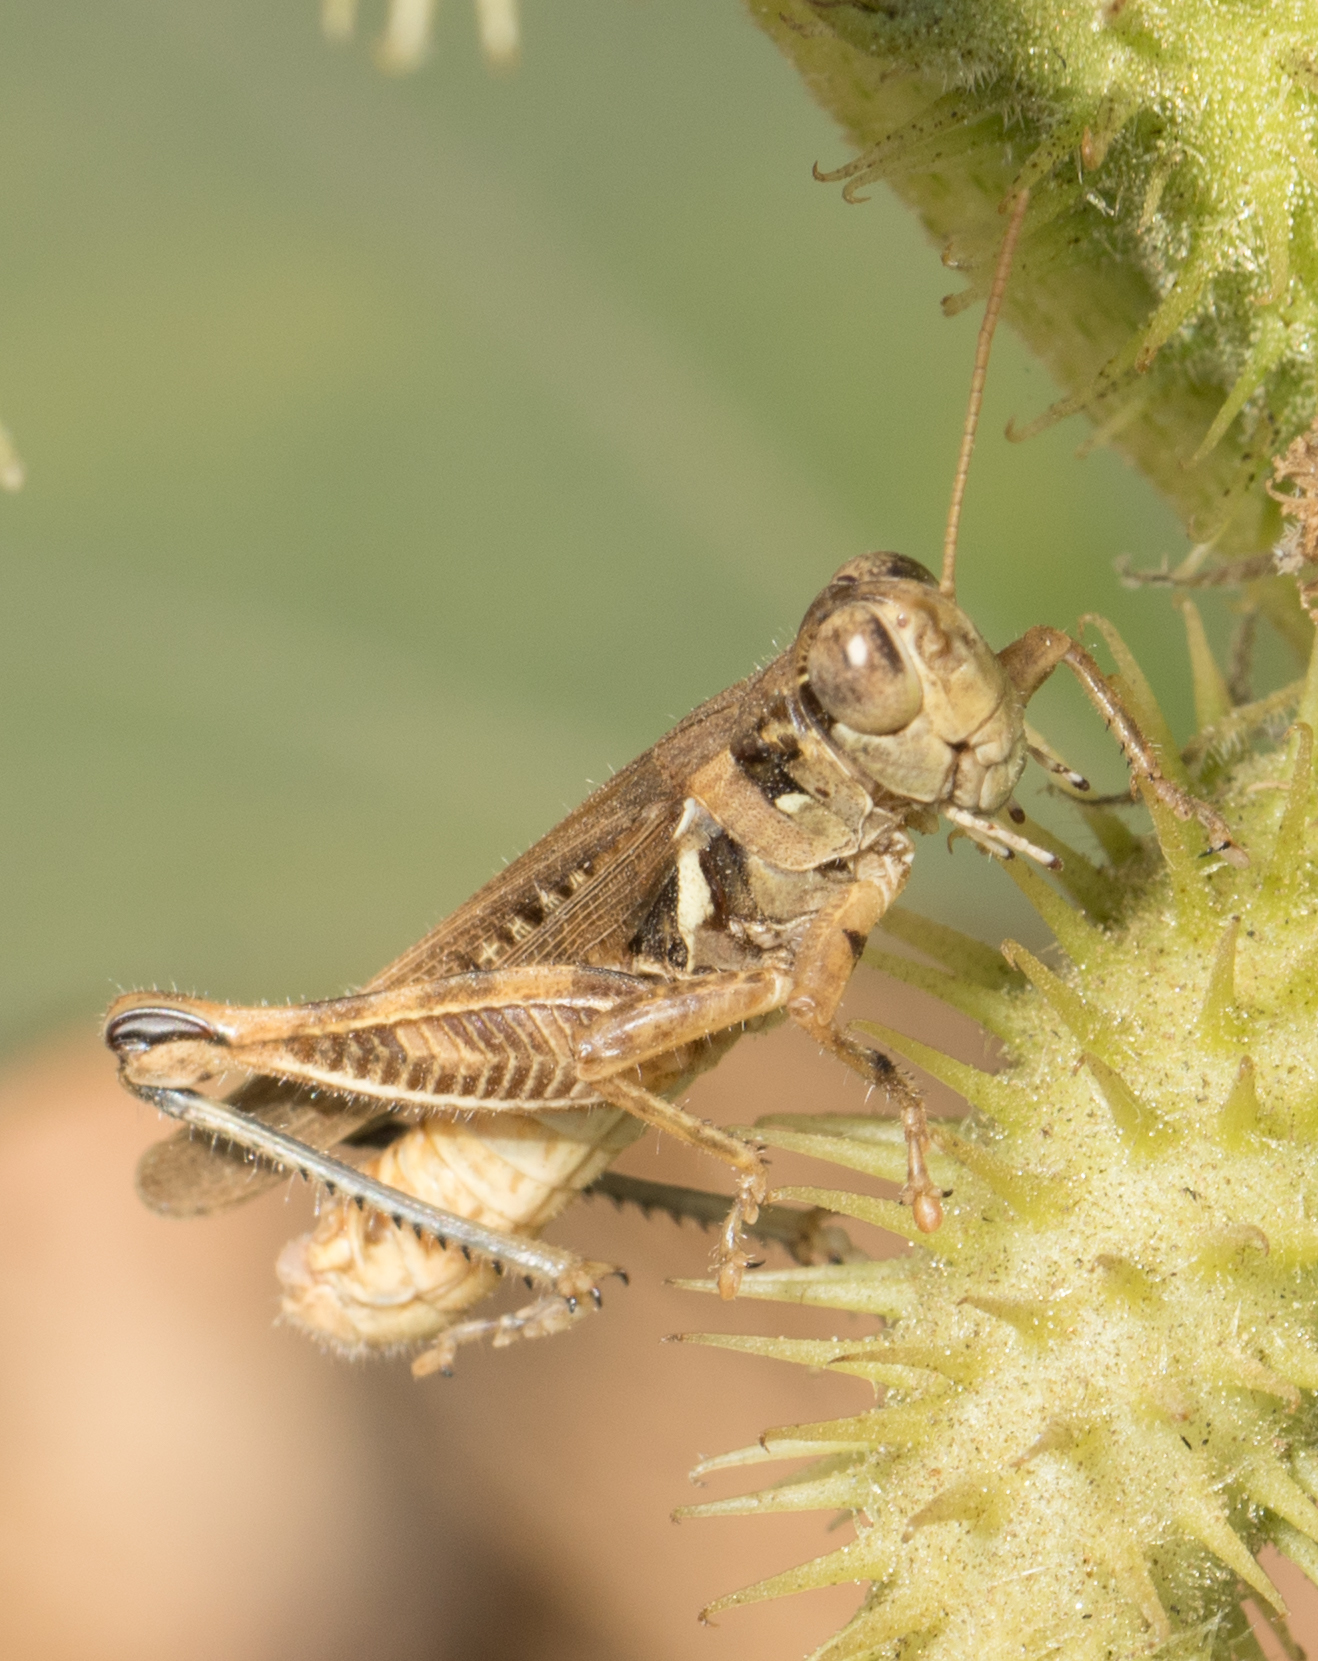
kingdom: Animalia
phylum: Arthropoda
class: Insecta
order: Orthoptera
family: Acrididae
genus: Melanoplus
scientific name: Melanoplus devastator
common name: Devastating grasshopper
